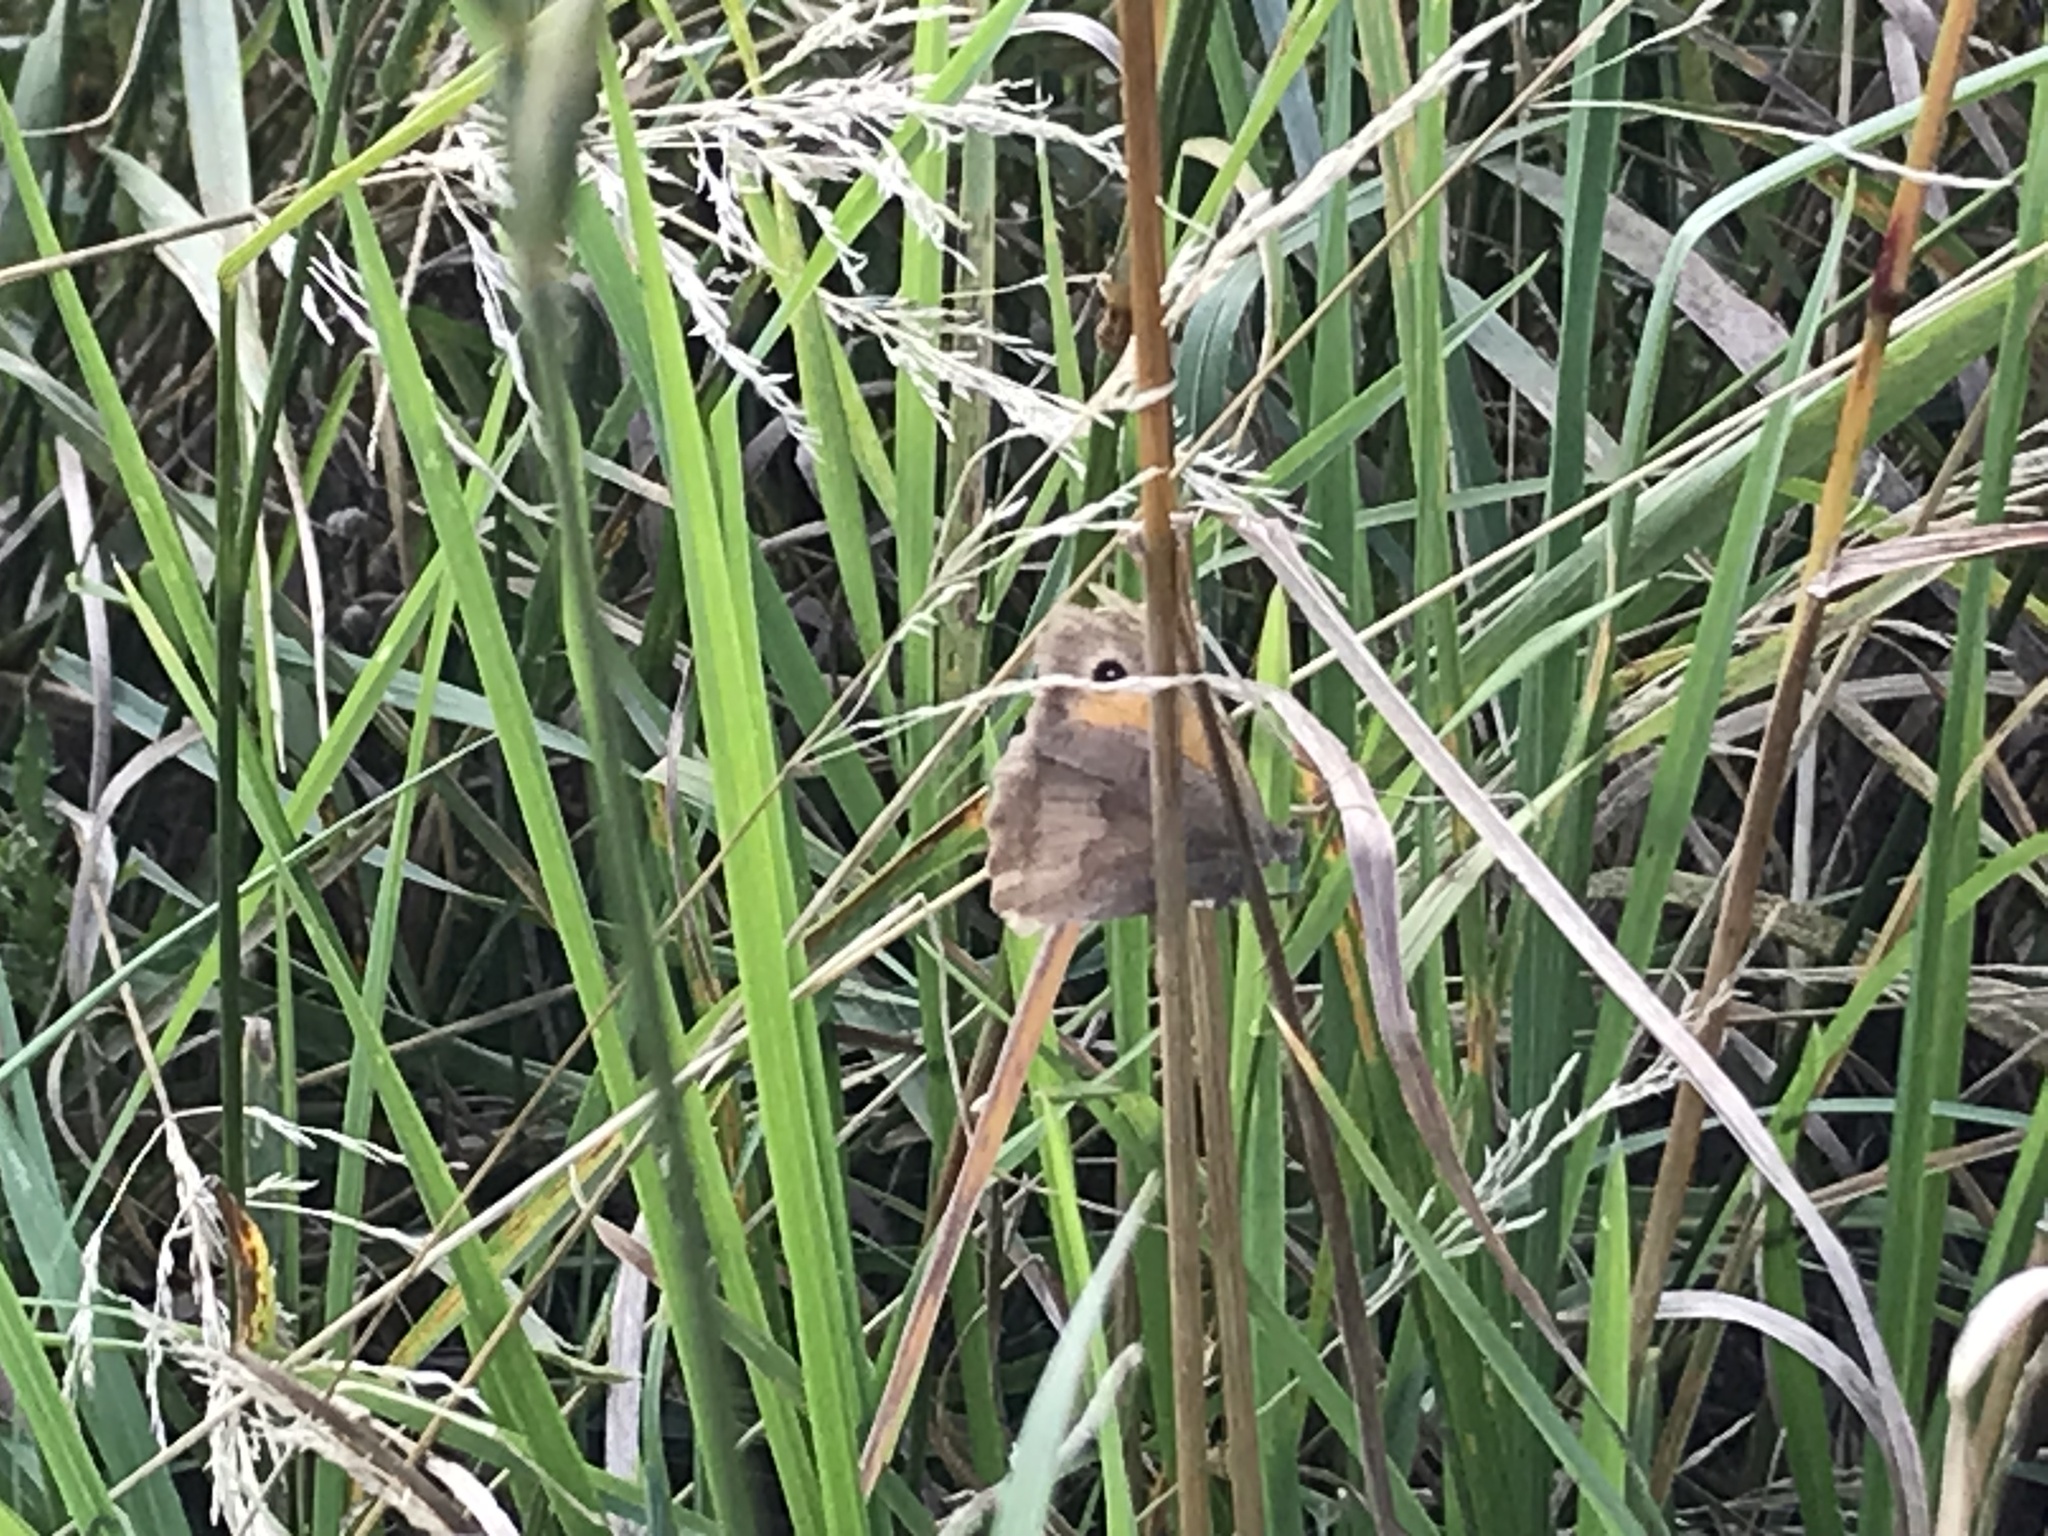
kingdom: Animalia
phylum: Arthropoda
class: Insecta
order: Lepidoptera
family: Nymphalidae
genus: Maniola
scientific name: Maniola jurtina
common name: Meadow brown
